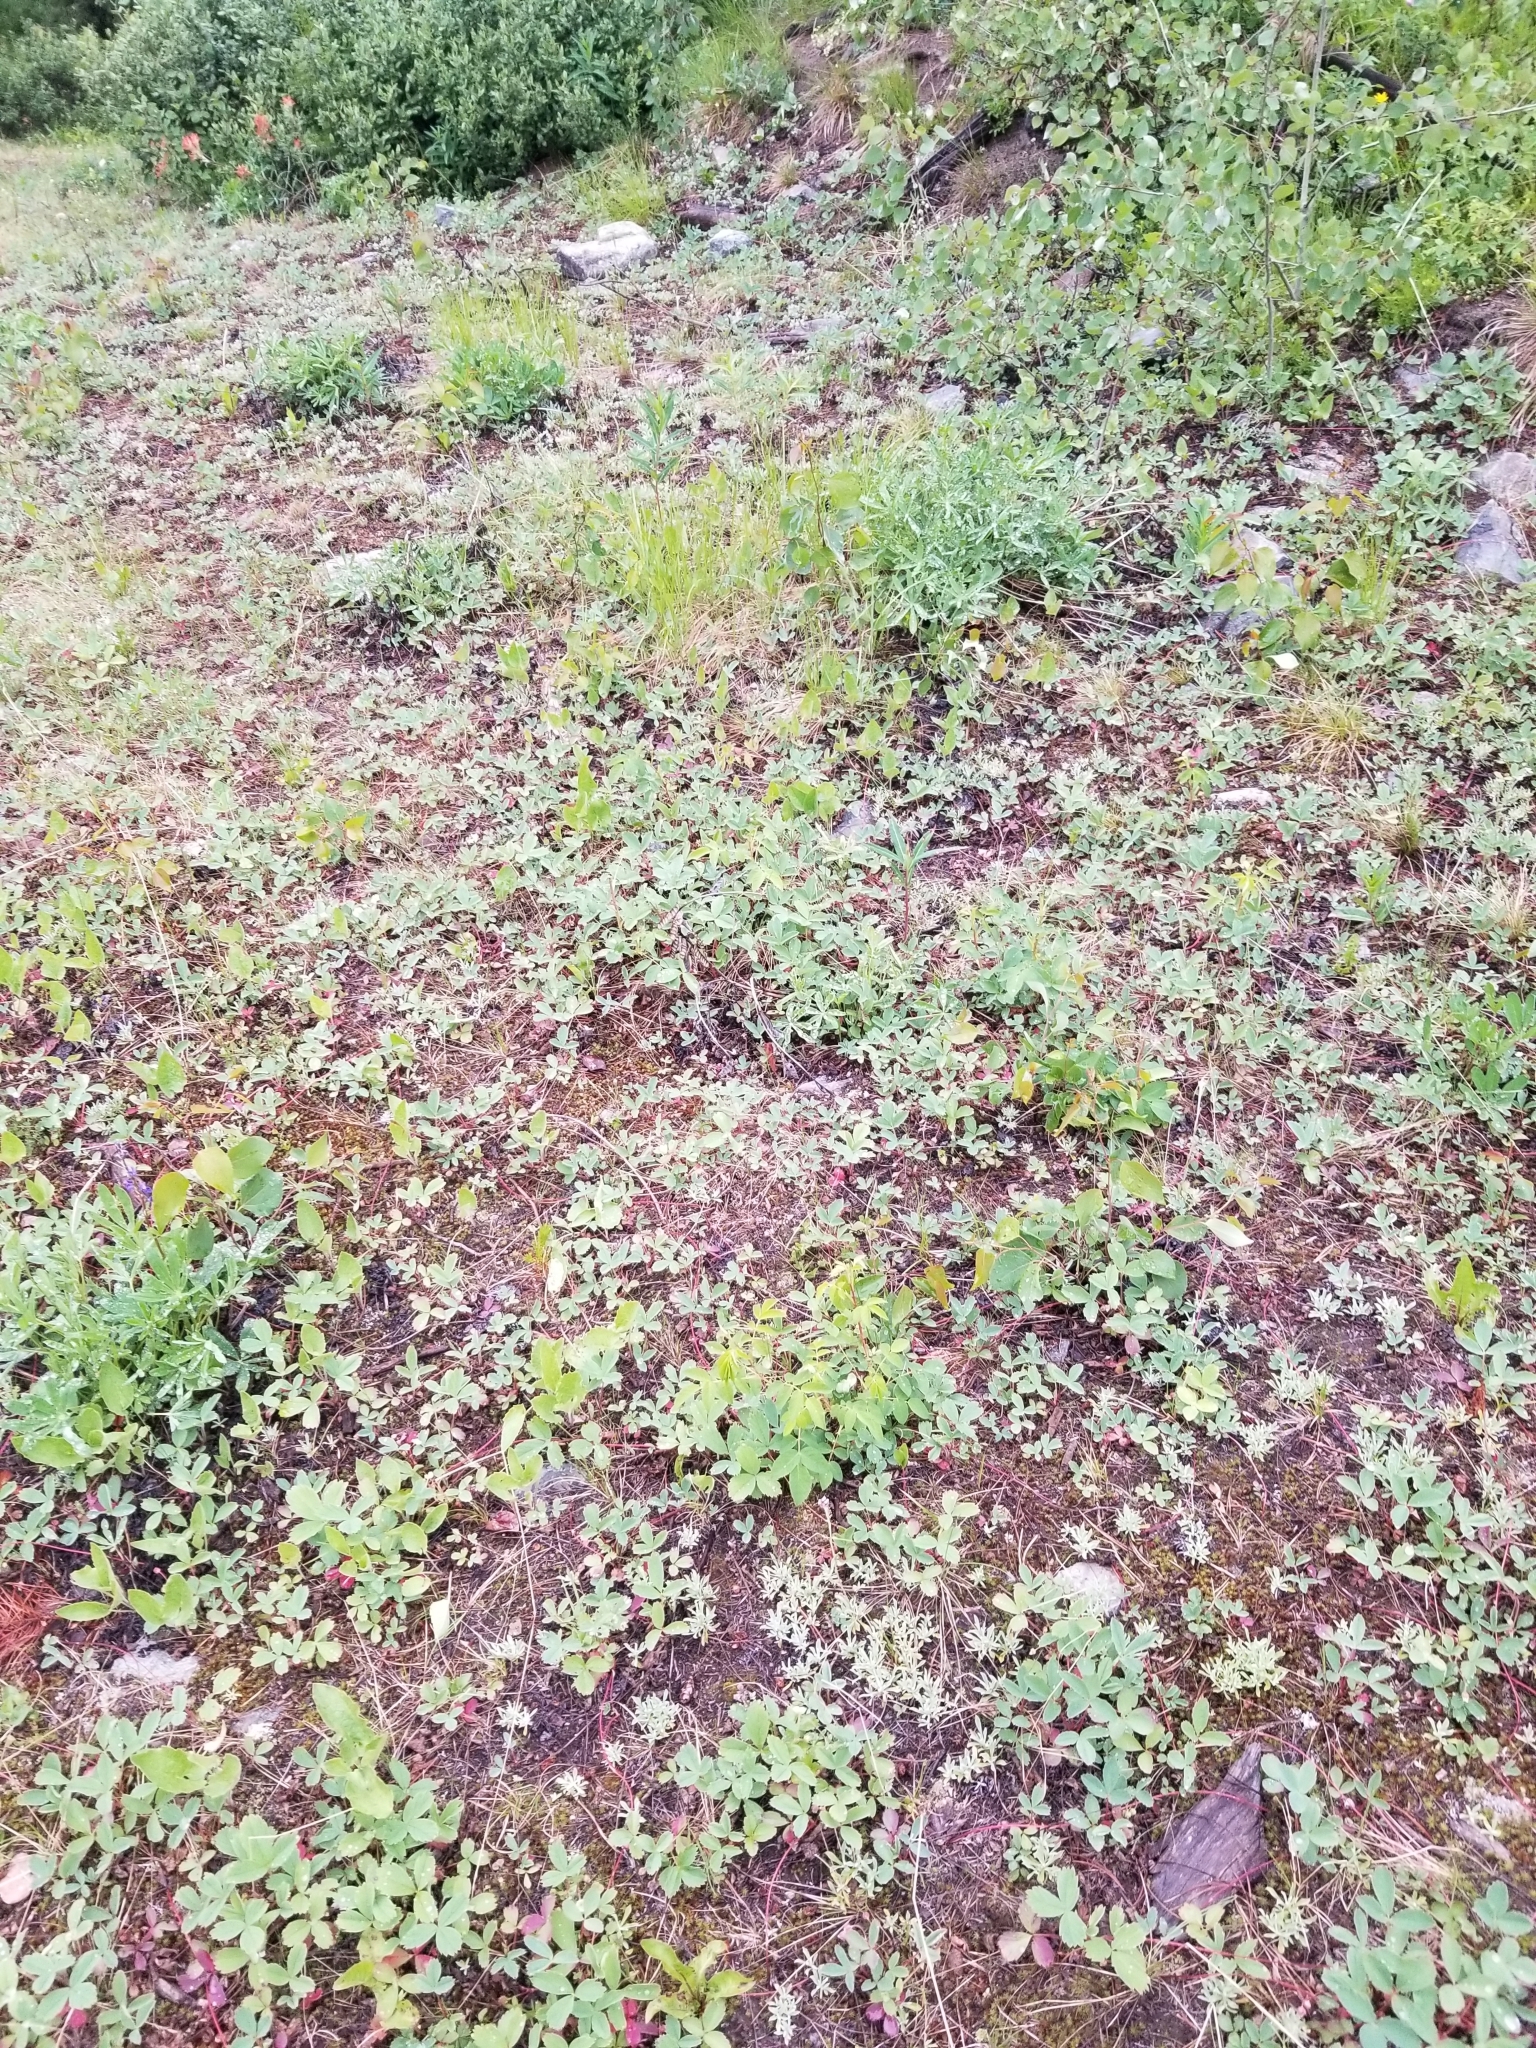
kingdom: Plantae
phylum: Tracheophyta
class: Magnoliopsida
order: Rosales
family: Rosaceae
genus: Fragaria
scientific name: Fragaria virginiana
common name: Thickleaved wild strawberry
